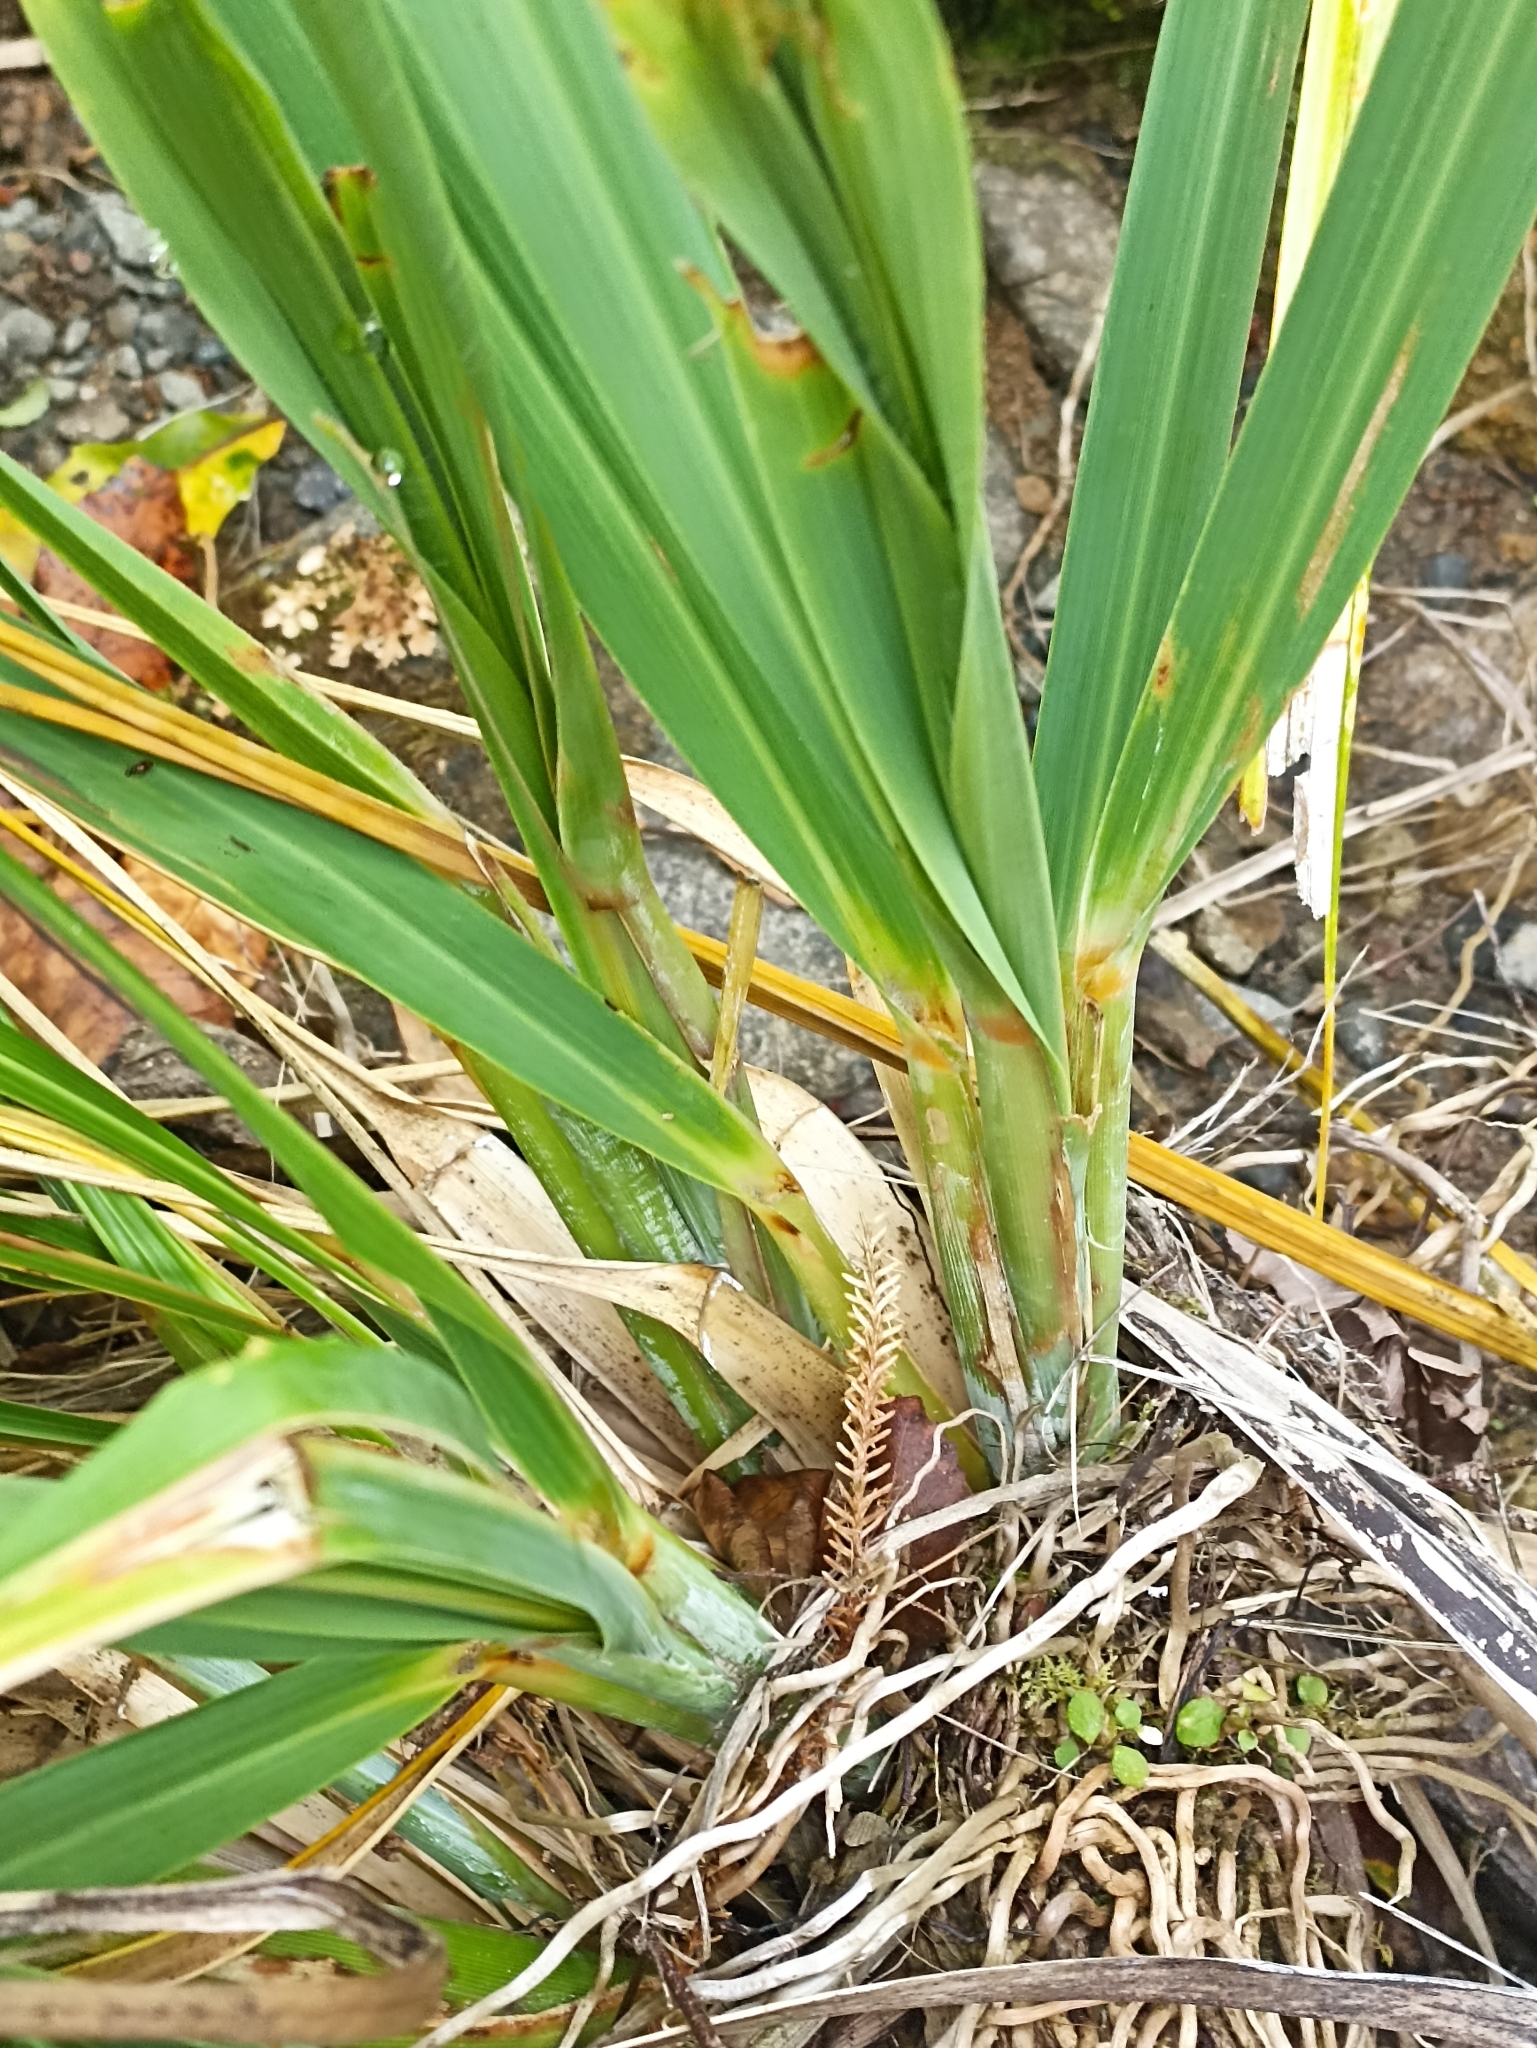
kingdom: Plantae
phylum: Tracheophyta
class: Liliopsida
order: Poales
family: Poaceae
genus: Chionochloa
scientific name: Chionochloa conspicua
